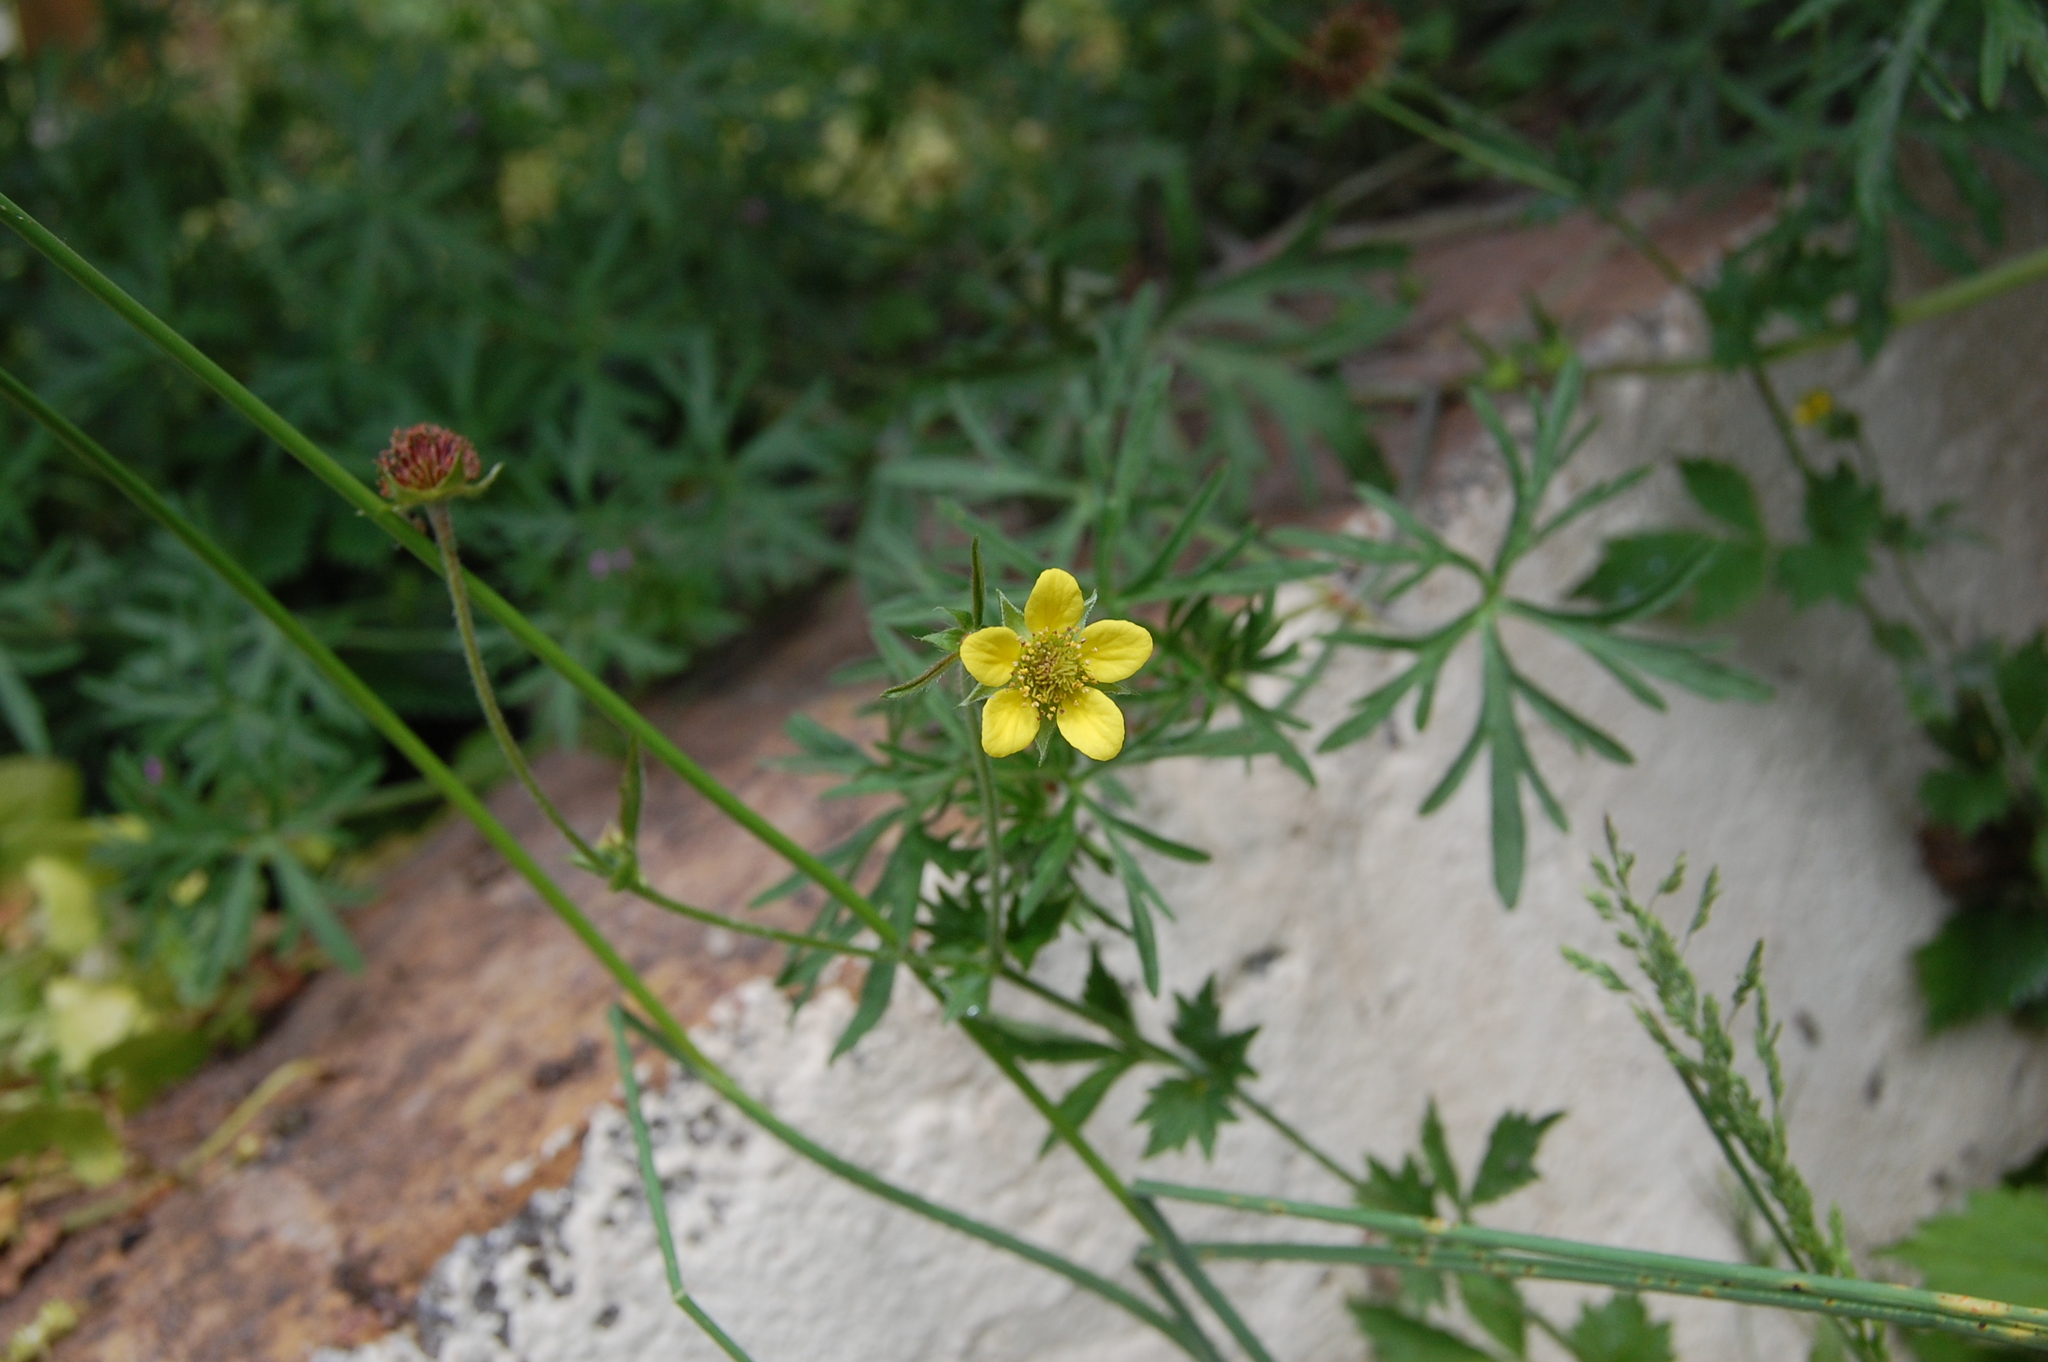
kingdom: Plantae
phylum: Tracheophyta
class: Magnoliopsida
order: Rosales
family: Rosaceae
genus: Geum
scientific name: Geum urbanum
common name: Wood avens
